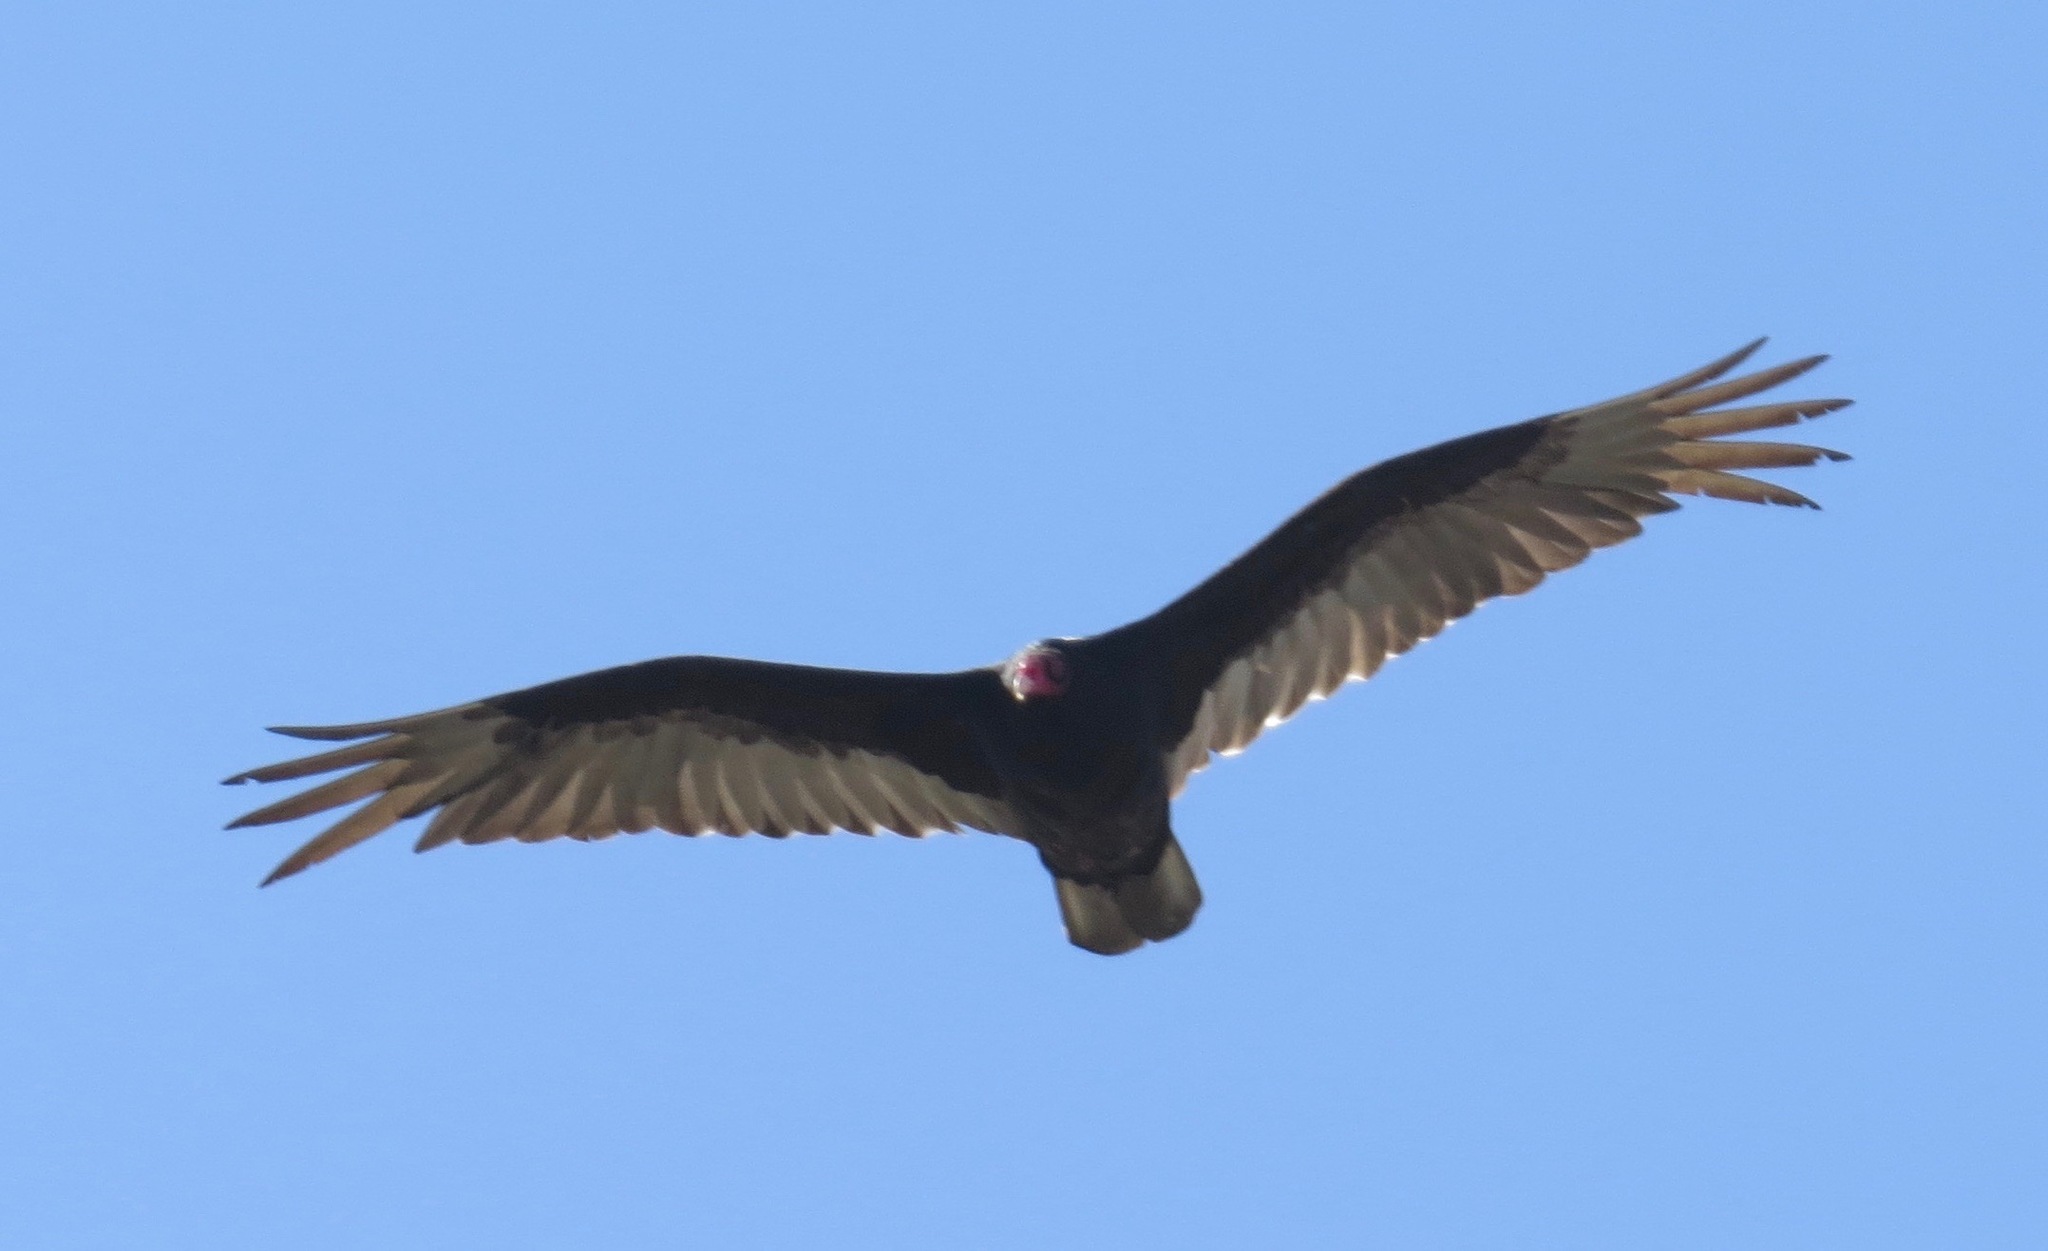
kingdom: Animalia
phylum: Chordata
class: Aves
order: Accipitriformes
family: Cathartidae
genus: Cathartes
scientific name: Cathartes aura
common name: Turkey vulture
